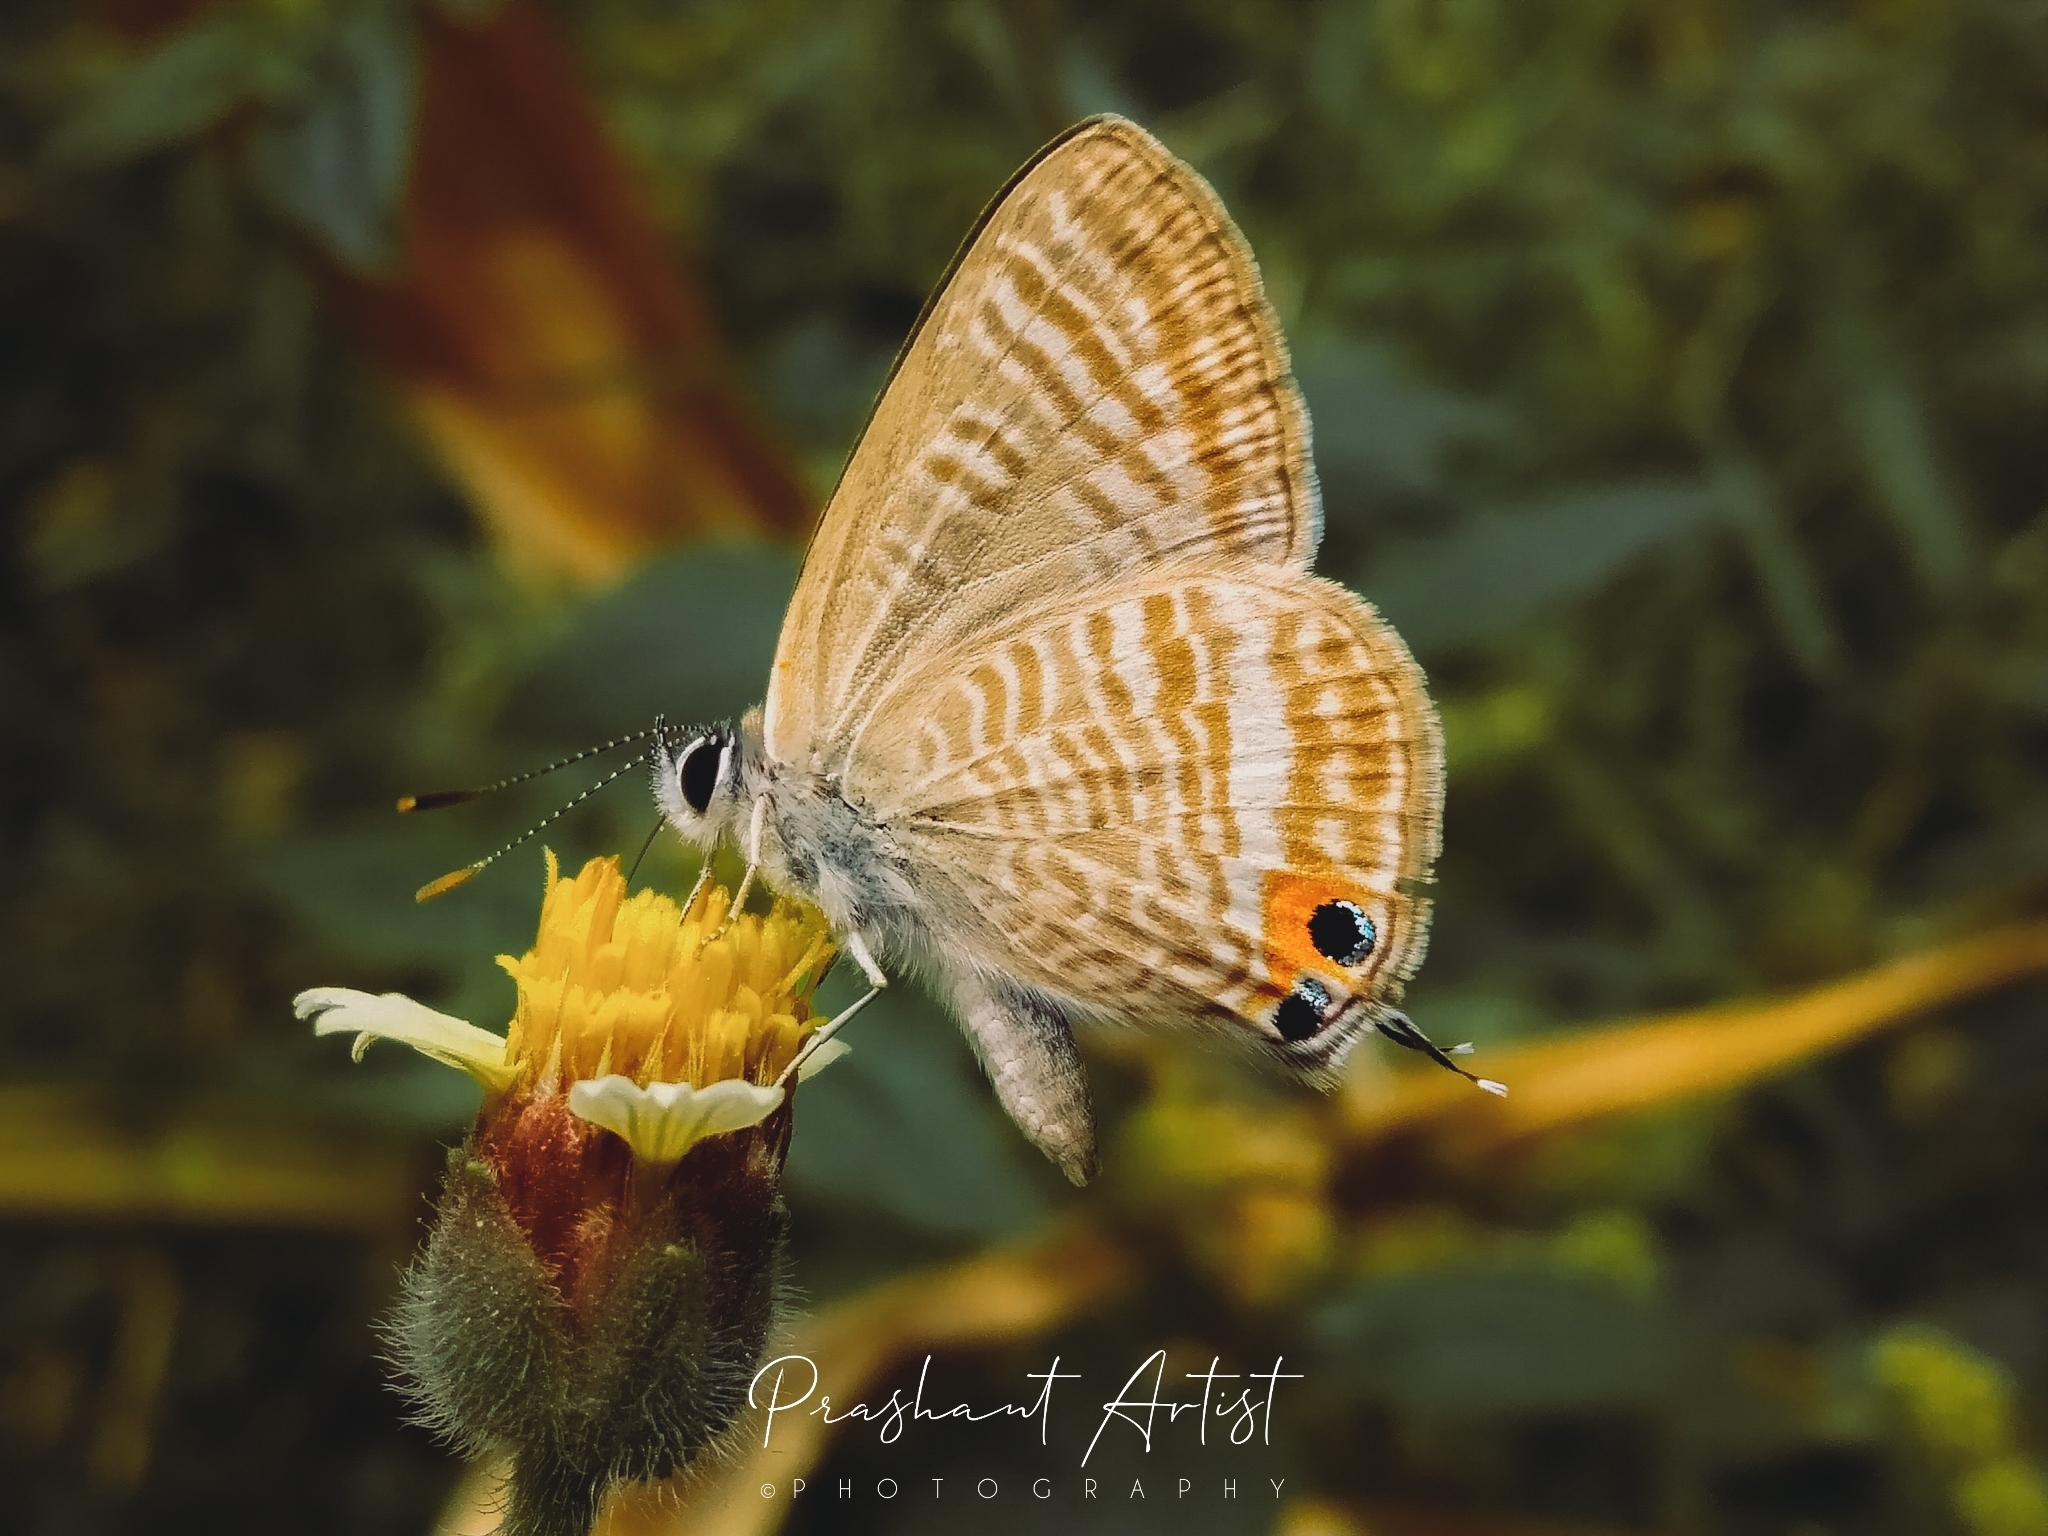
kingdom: Animalia
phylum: Arthropoda
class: Insecta
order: Lepidoptera
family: Lycaenidae
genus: Lampides
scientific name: Lampides boeticus
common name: Long-tailed blue
